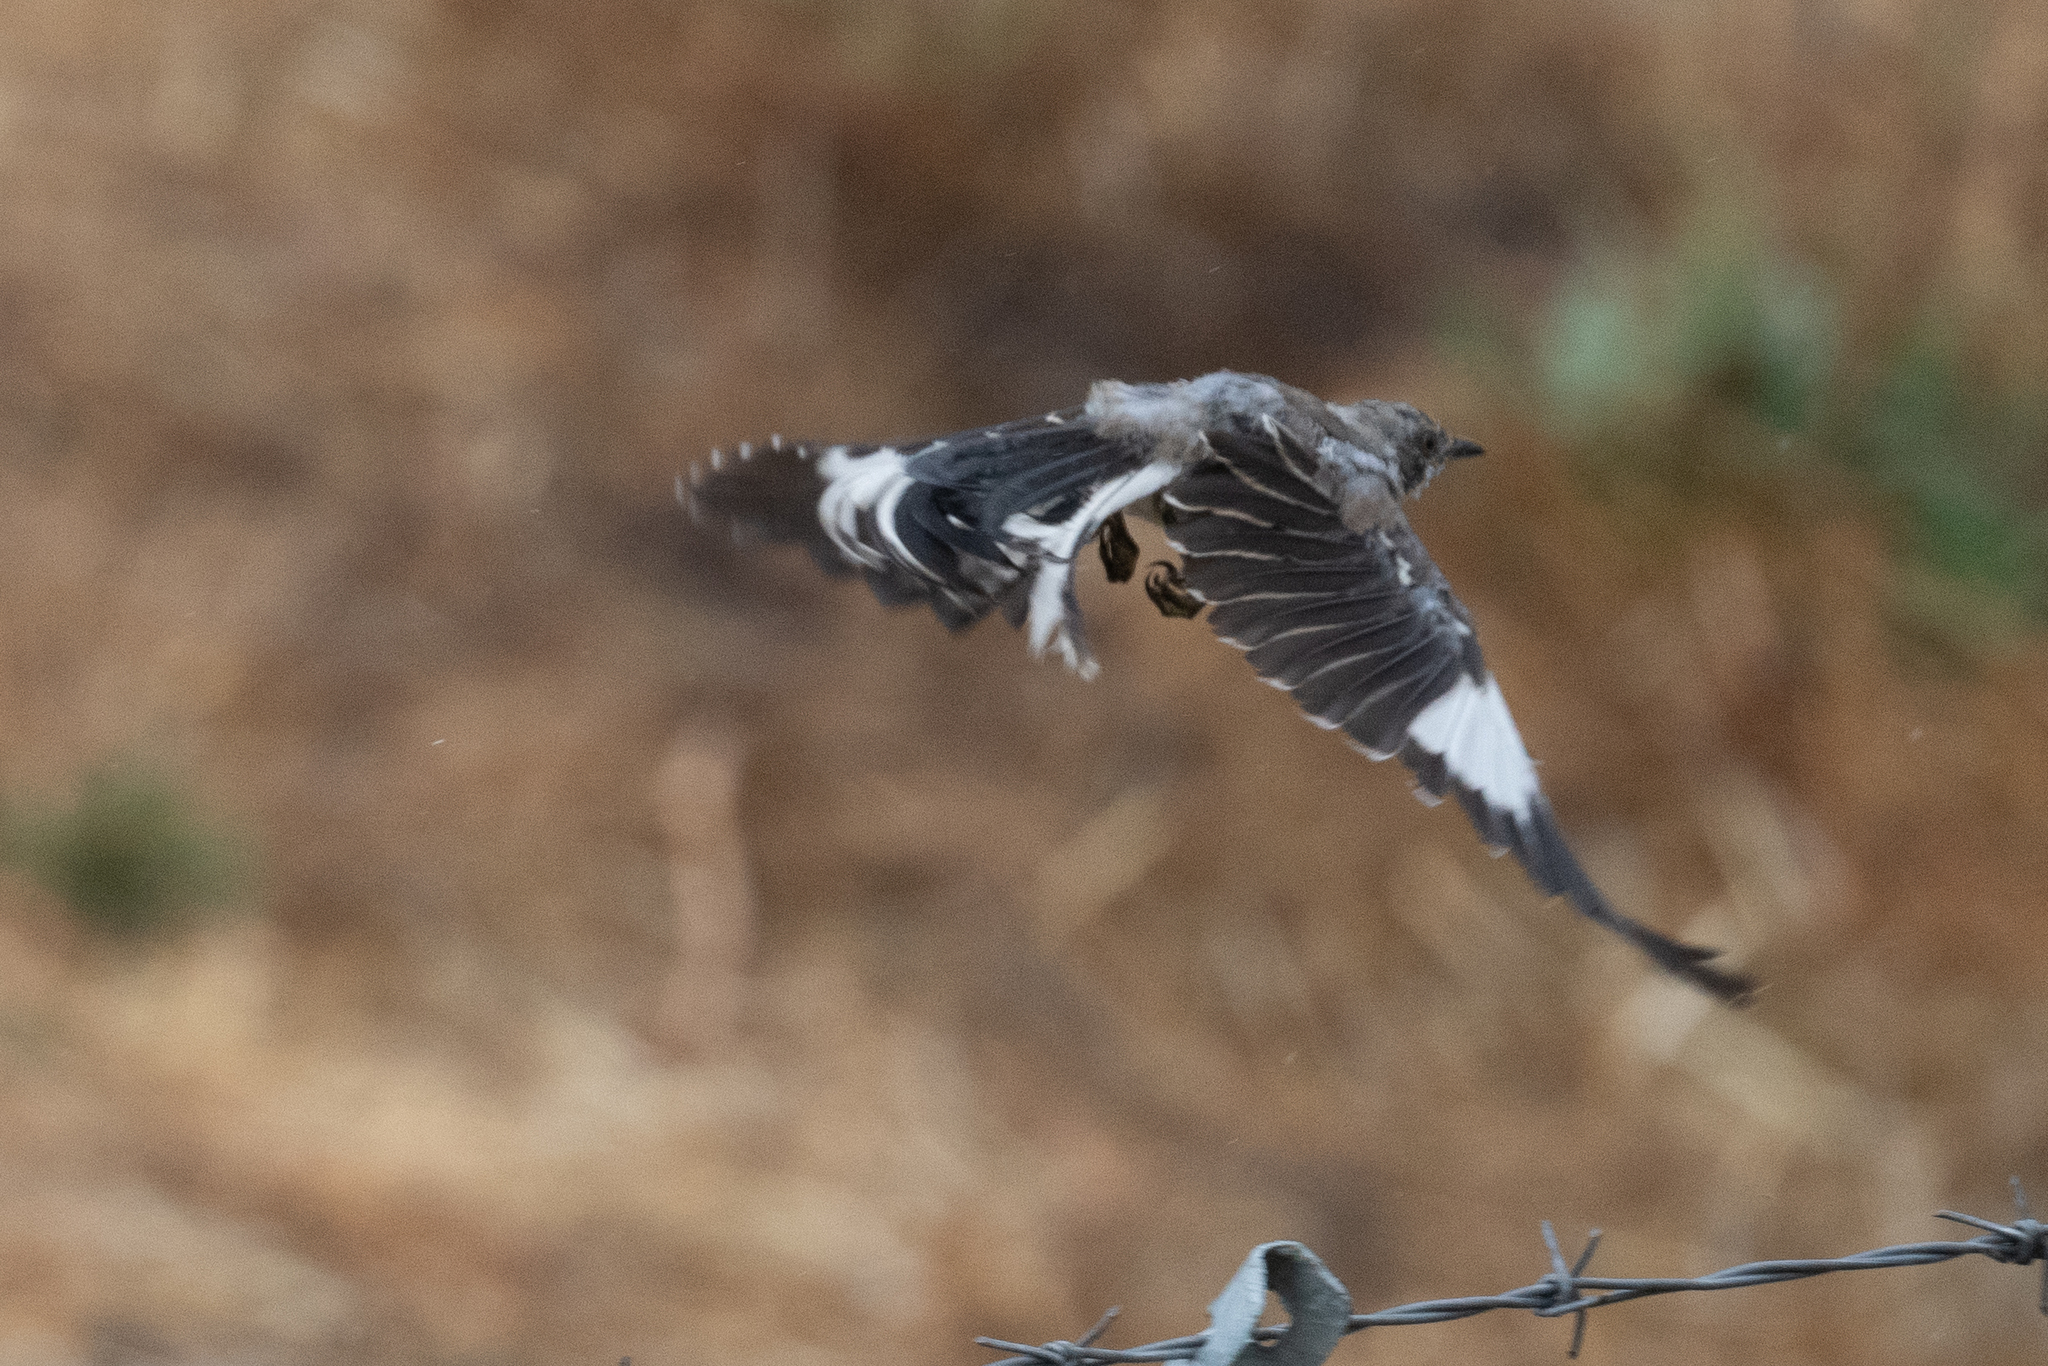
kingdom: Animalia
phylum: Chordata
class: Aves
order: Passeriformes
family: Mimidae
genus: Mimus
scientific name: Mimus polyglottos
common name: Northern mockingbird
